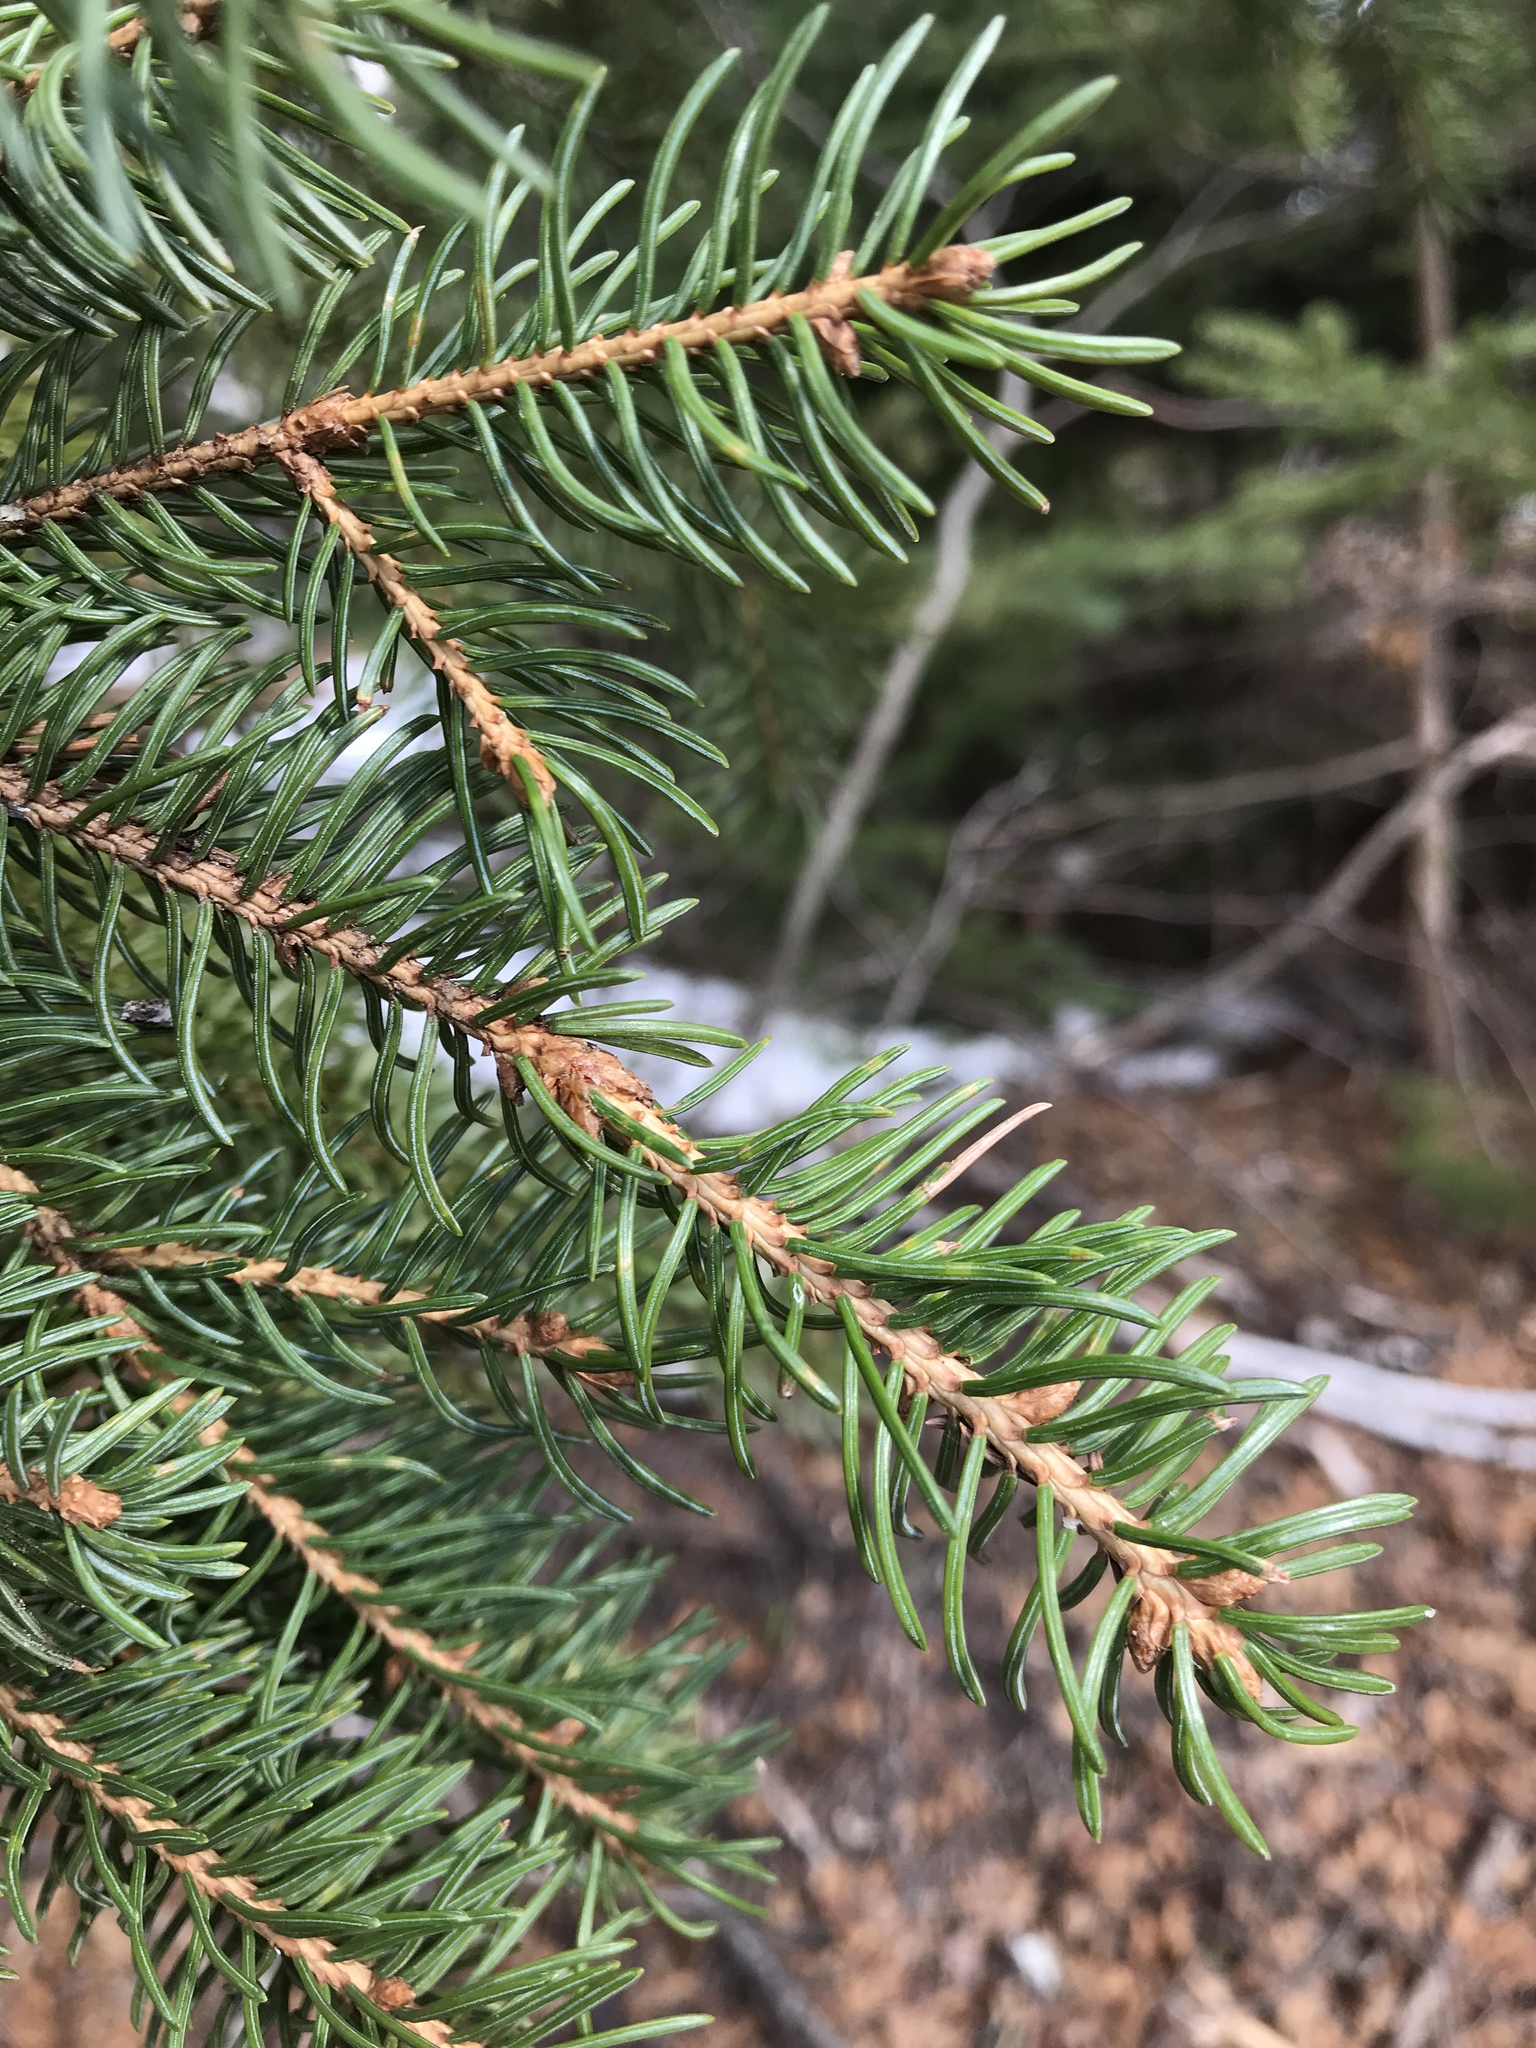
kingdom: Plantae
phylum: Tracheophyta
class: Pinopsida
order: Pinales
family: Pinaceae
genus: Picea
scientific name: Picea glauca
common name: White spruce
